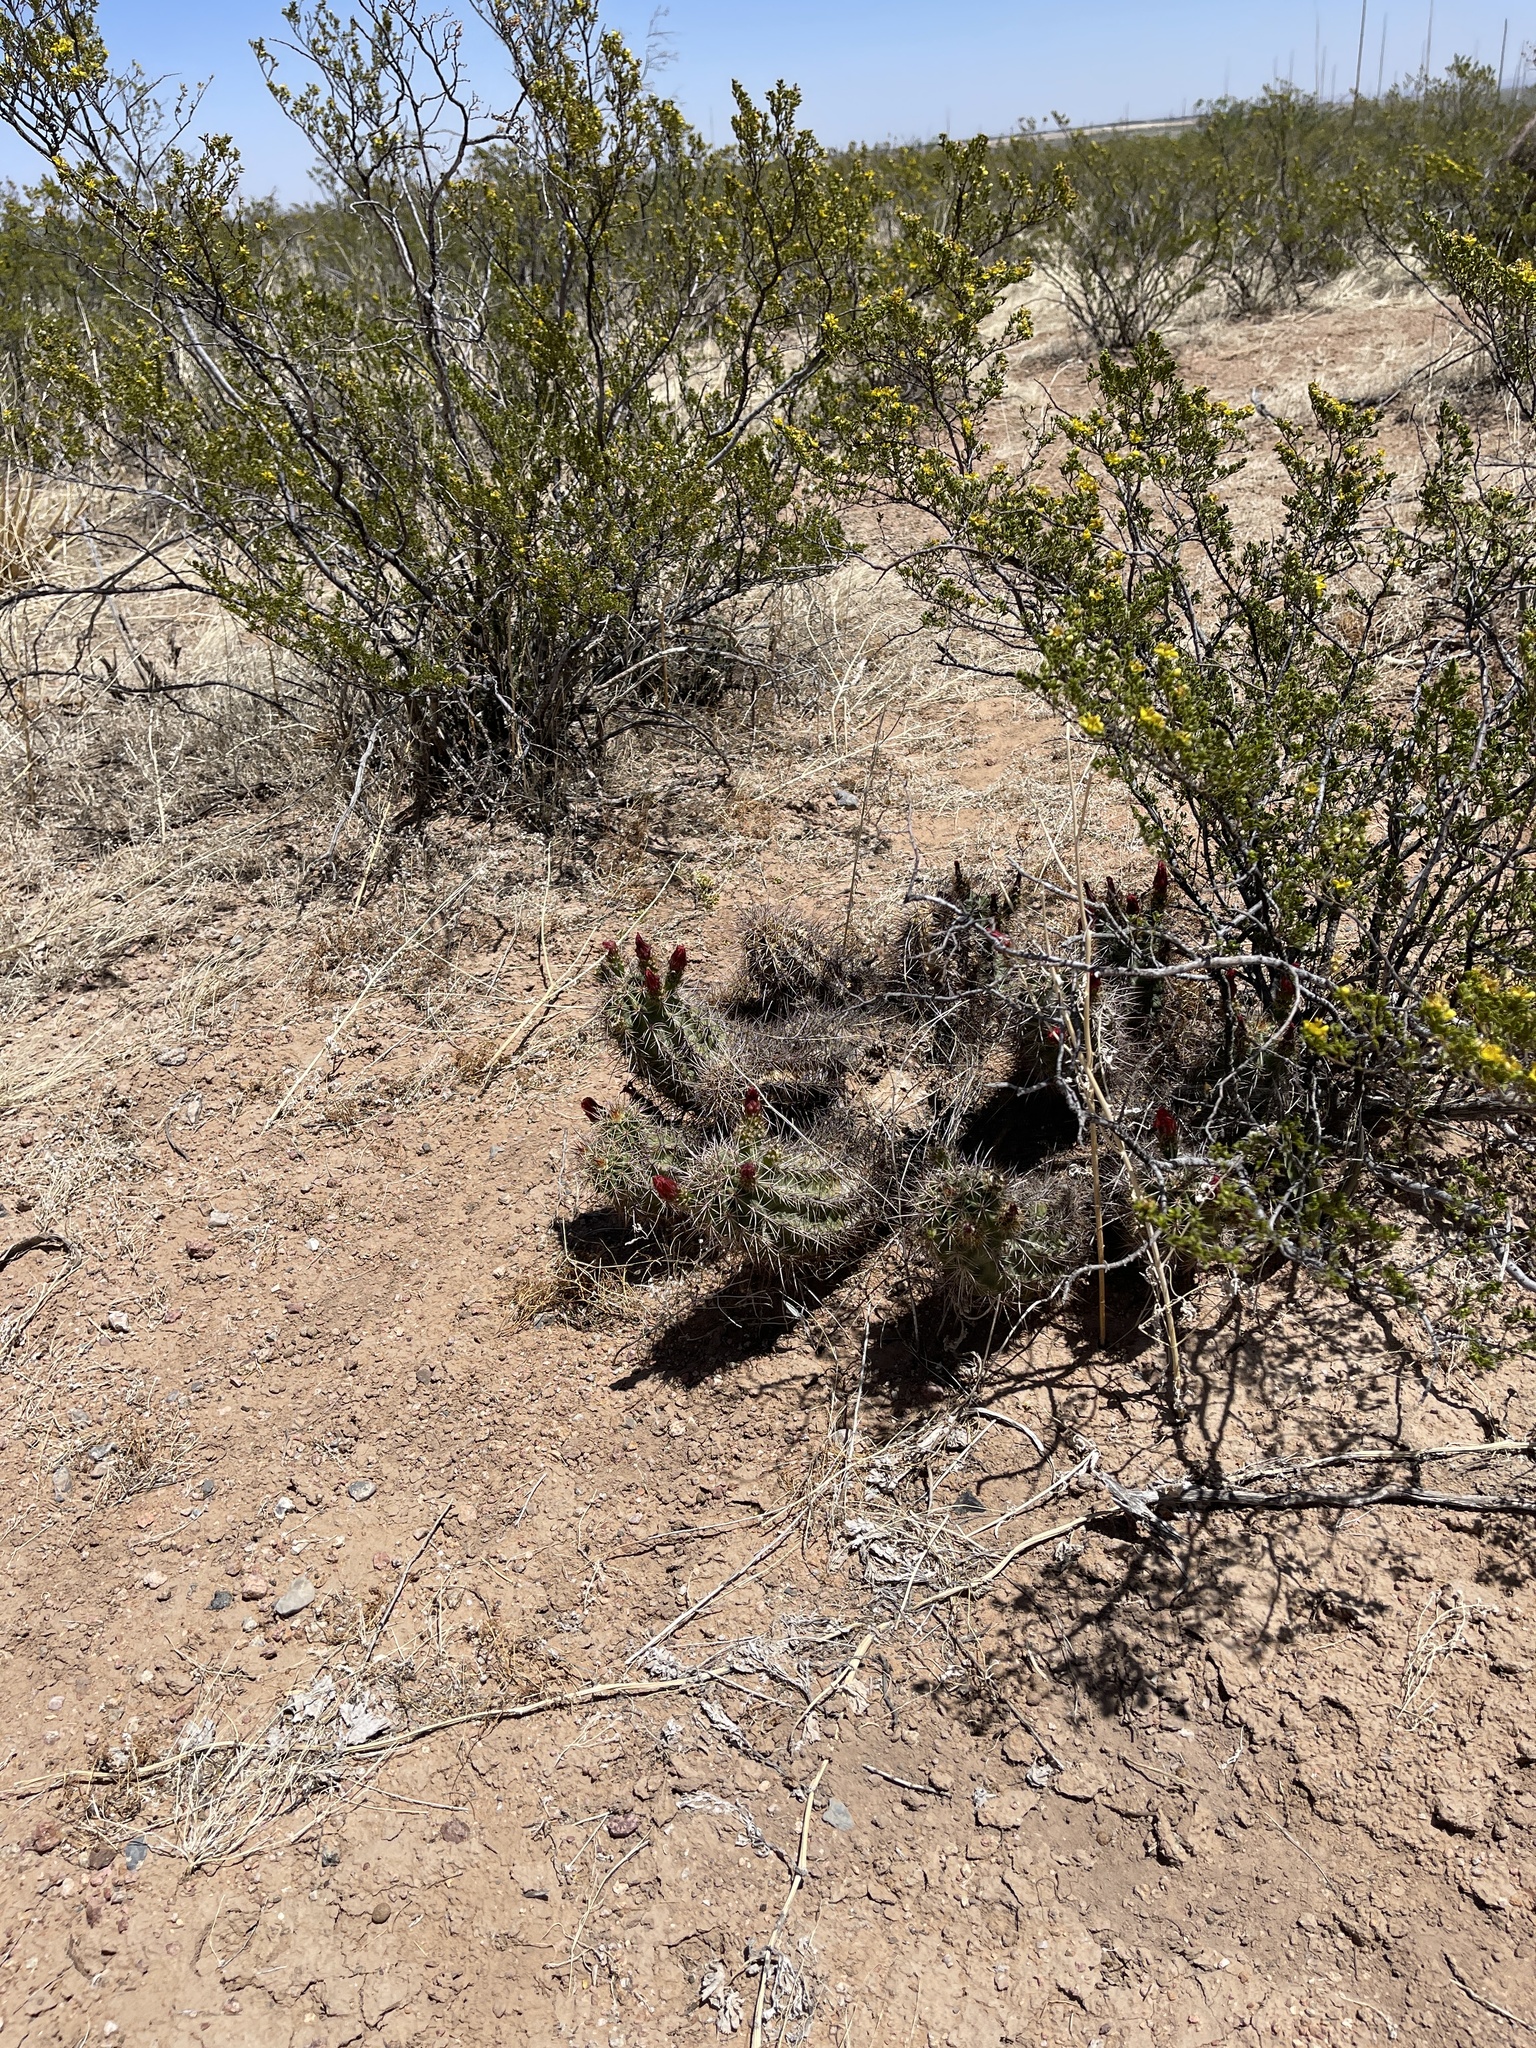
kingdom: Plantae
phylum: Tracheophyta
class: Magnoliopsida
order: Caryophyllales
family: Cactaceae
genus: Echinocereus
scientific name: Echinocereus coccineus
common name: Scarlet hedgehog cactus
